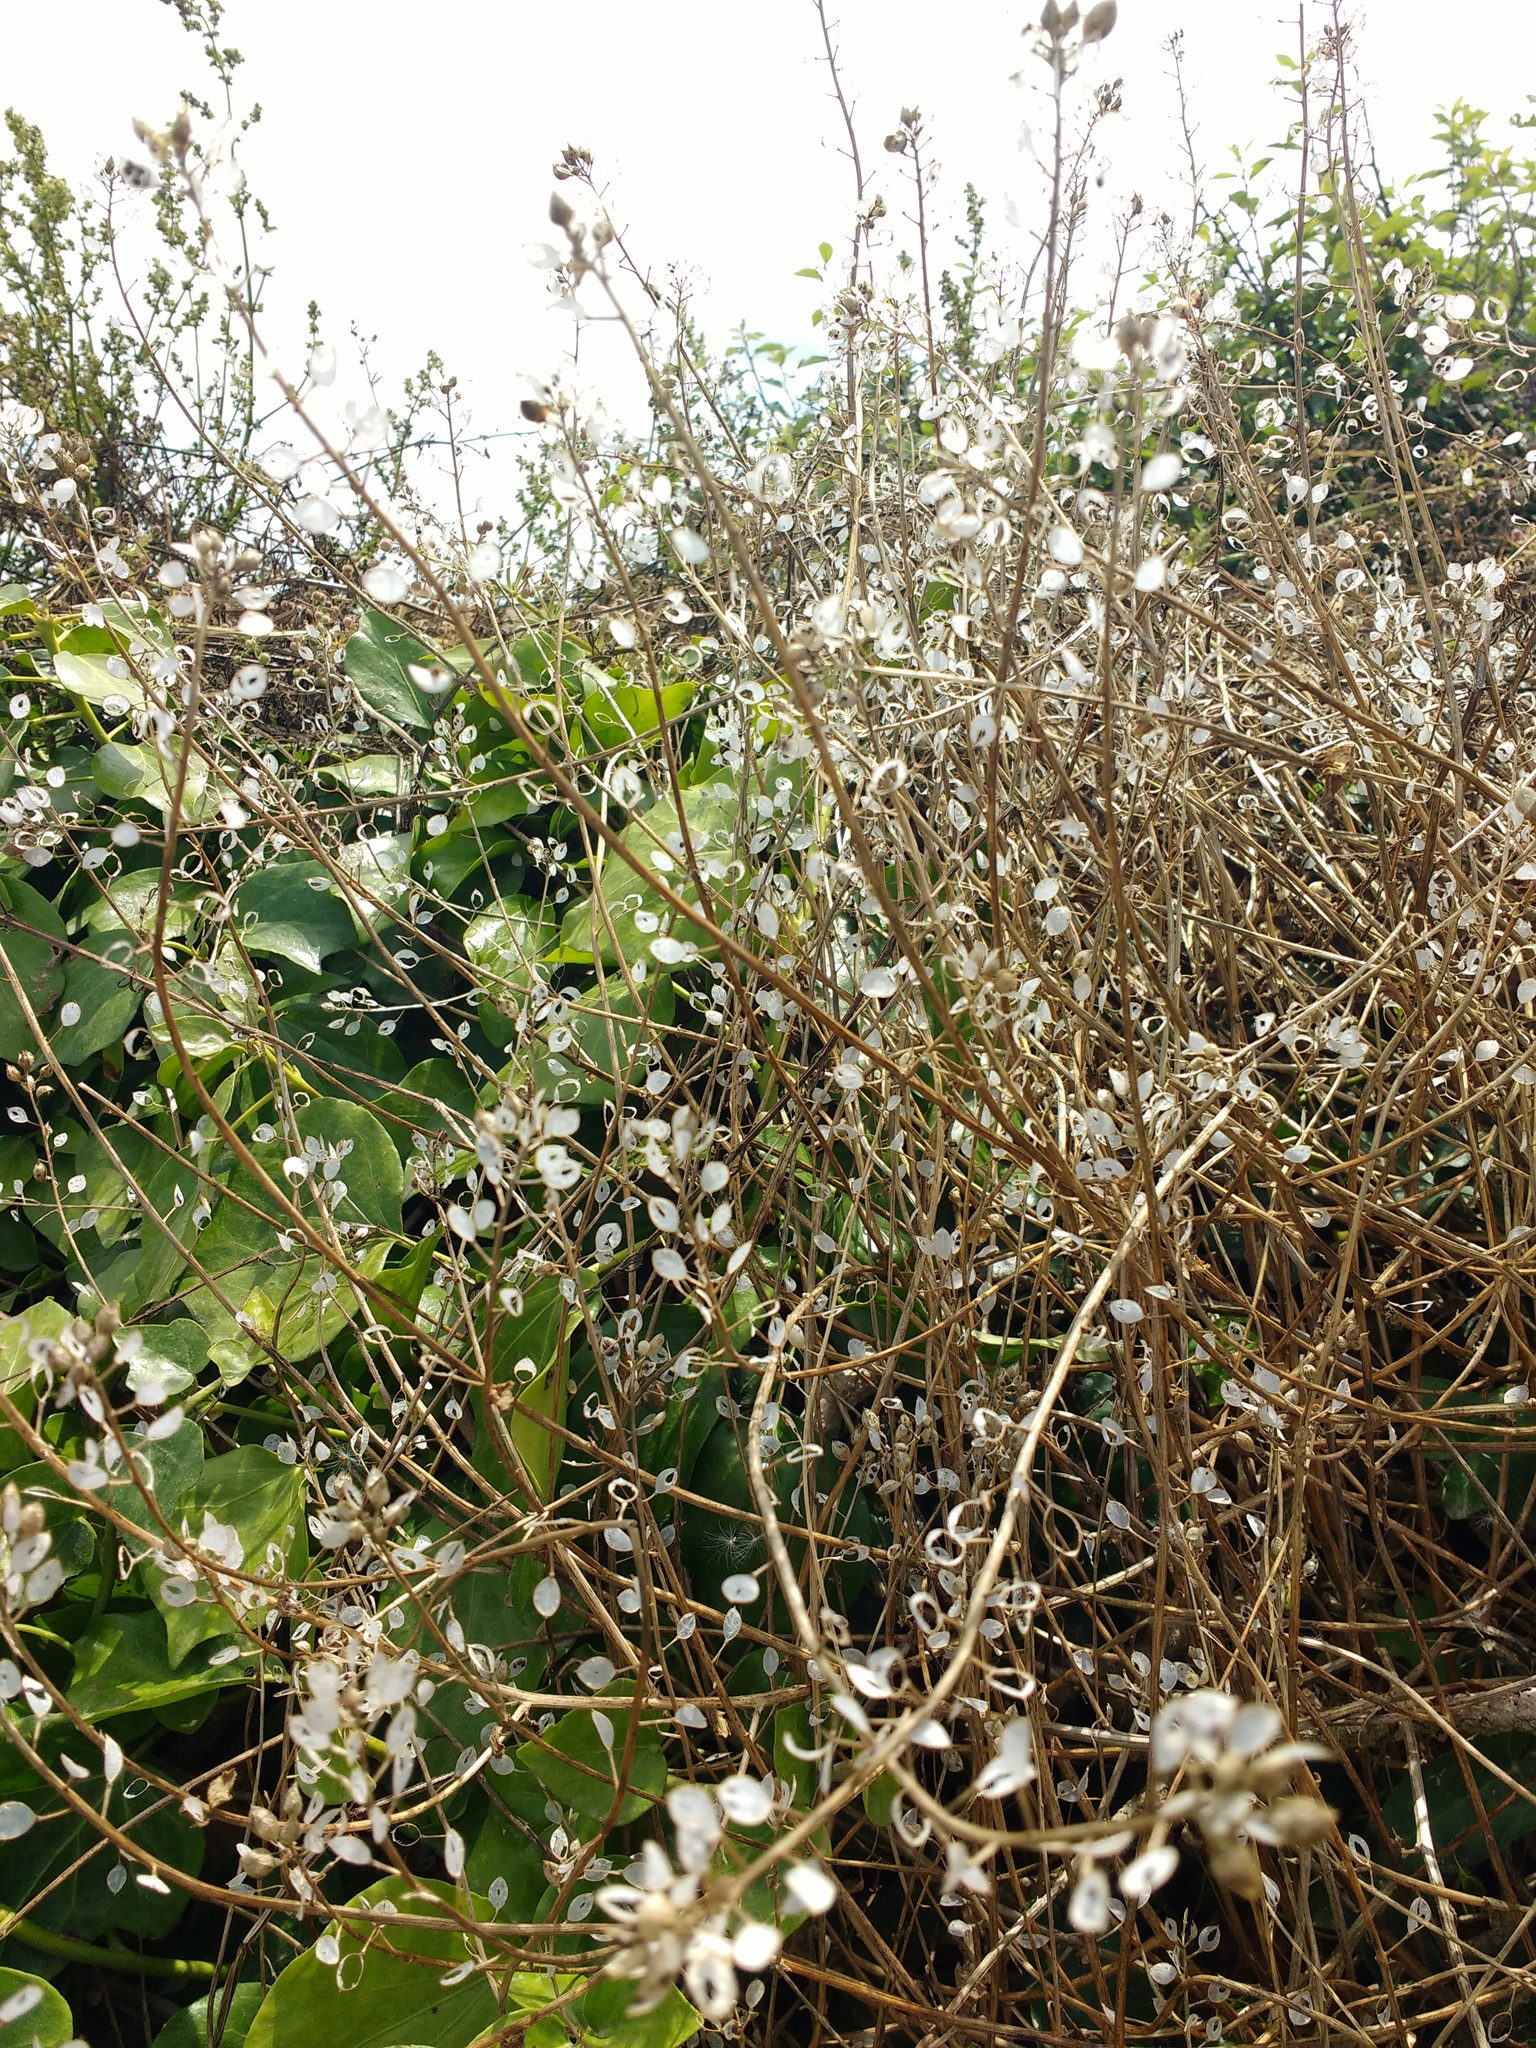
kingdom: Plantae
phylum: Tracheophyta
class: Magnoliopsida
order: Brassicales
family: Brassicaceae
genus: Cochlearia
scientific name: Cochlearia officinalis
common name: Scurvy-grass
